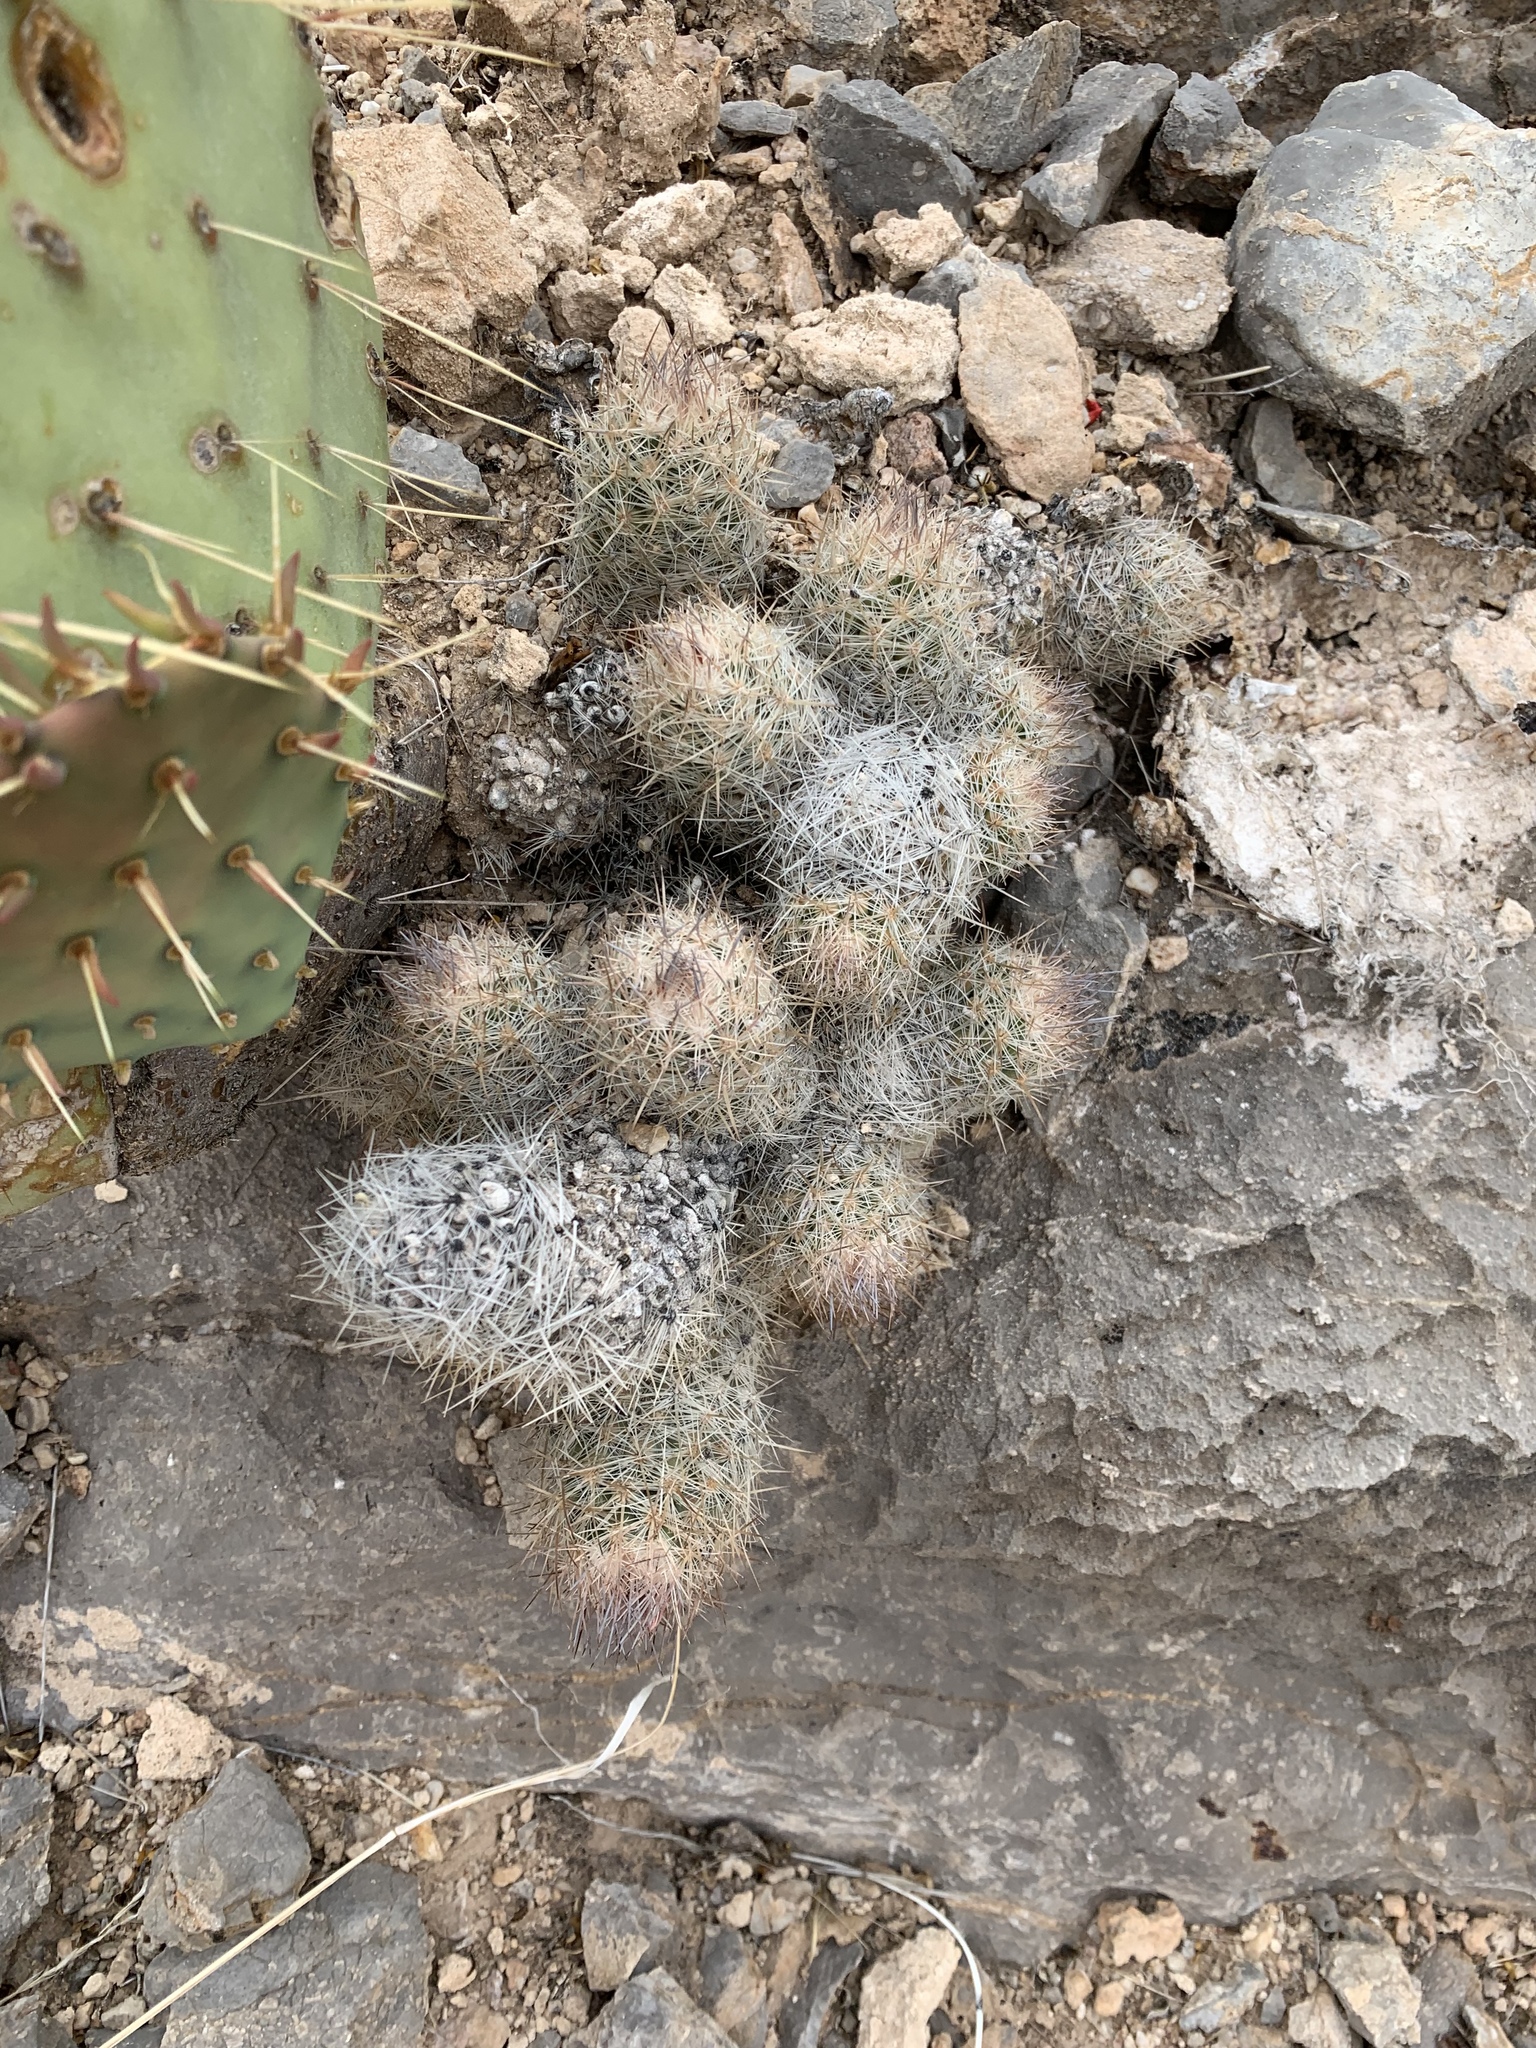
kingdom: Plantae
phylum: Tracheophyta
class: Magnoliopsida
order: Caryophyllales
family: Cactaceae
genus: Pelecyphora
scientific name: Pelecyphora tuberculosa
